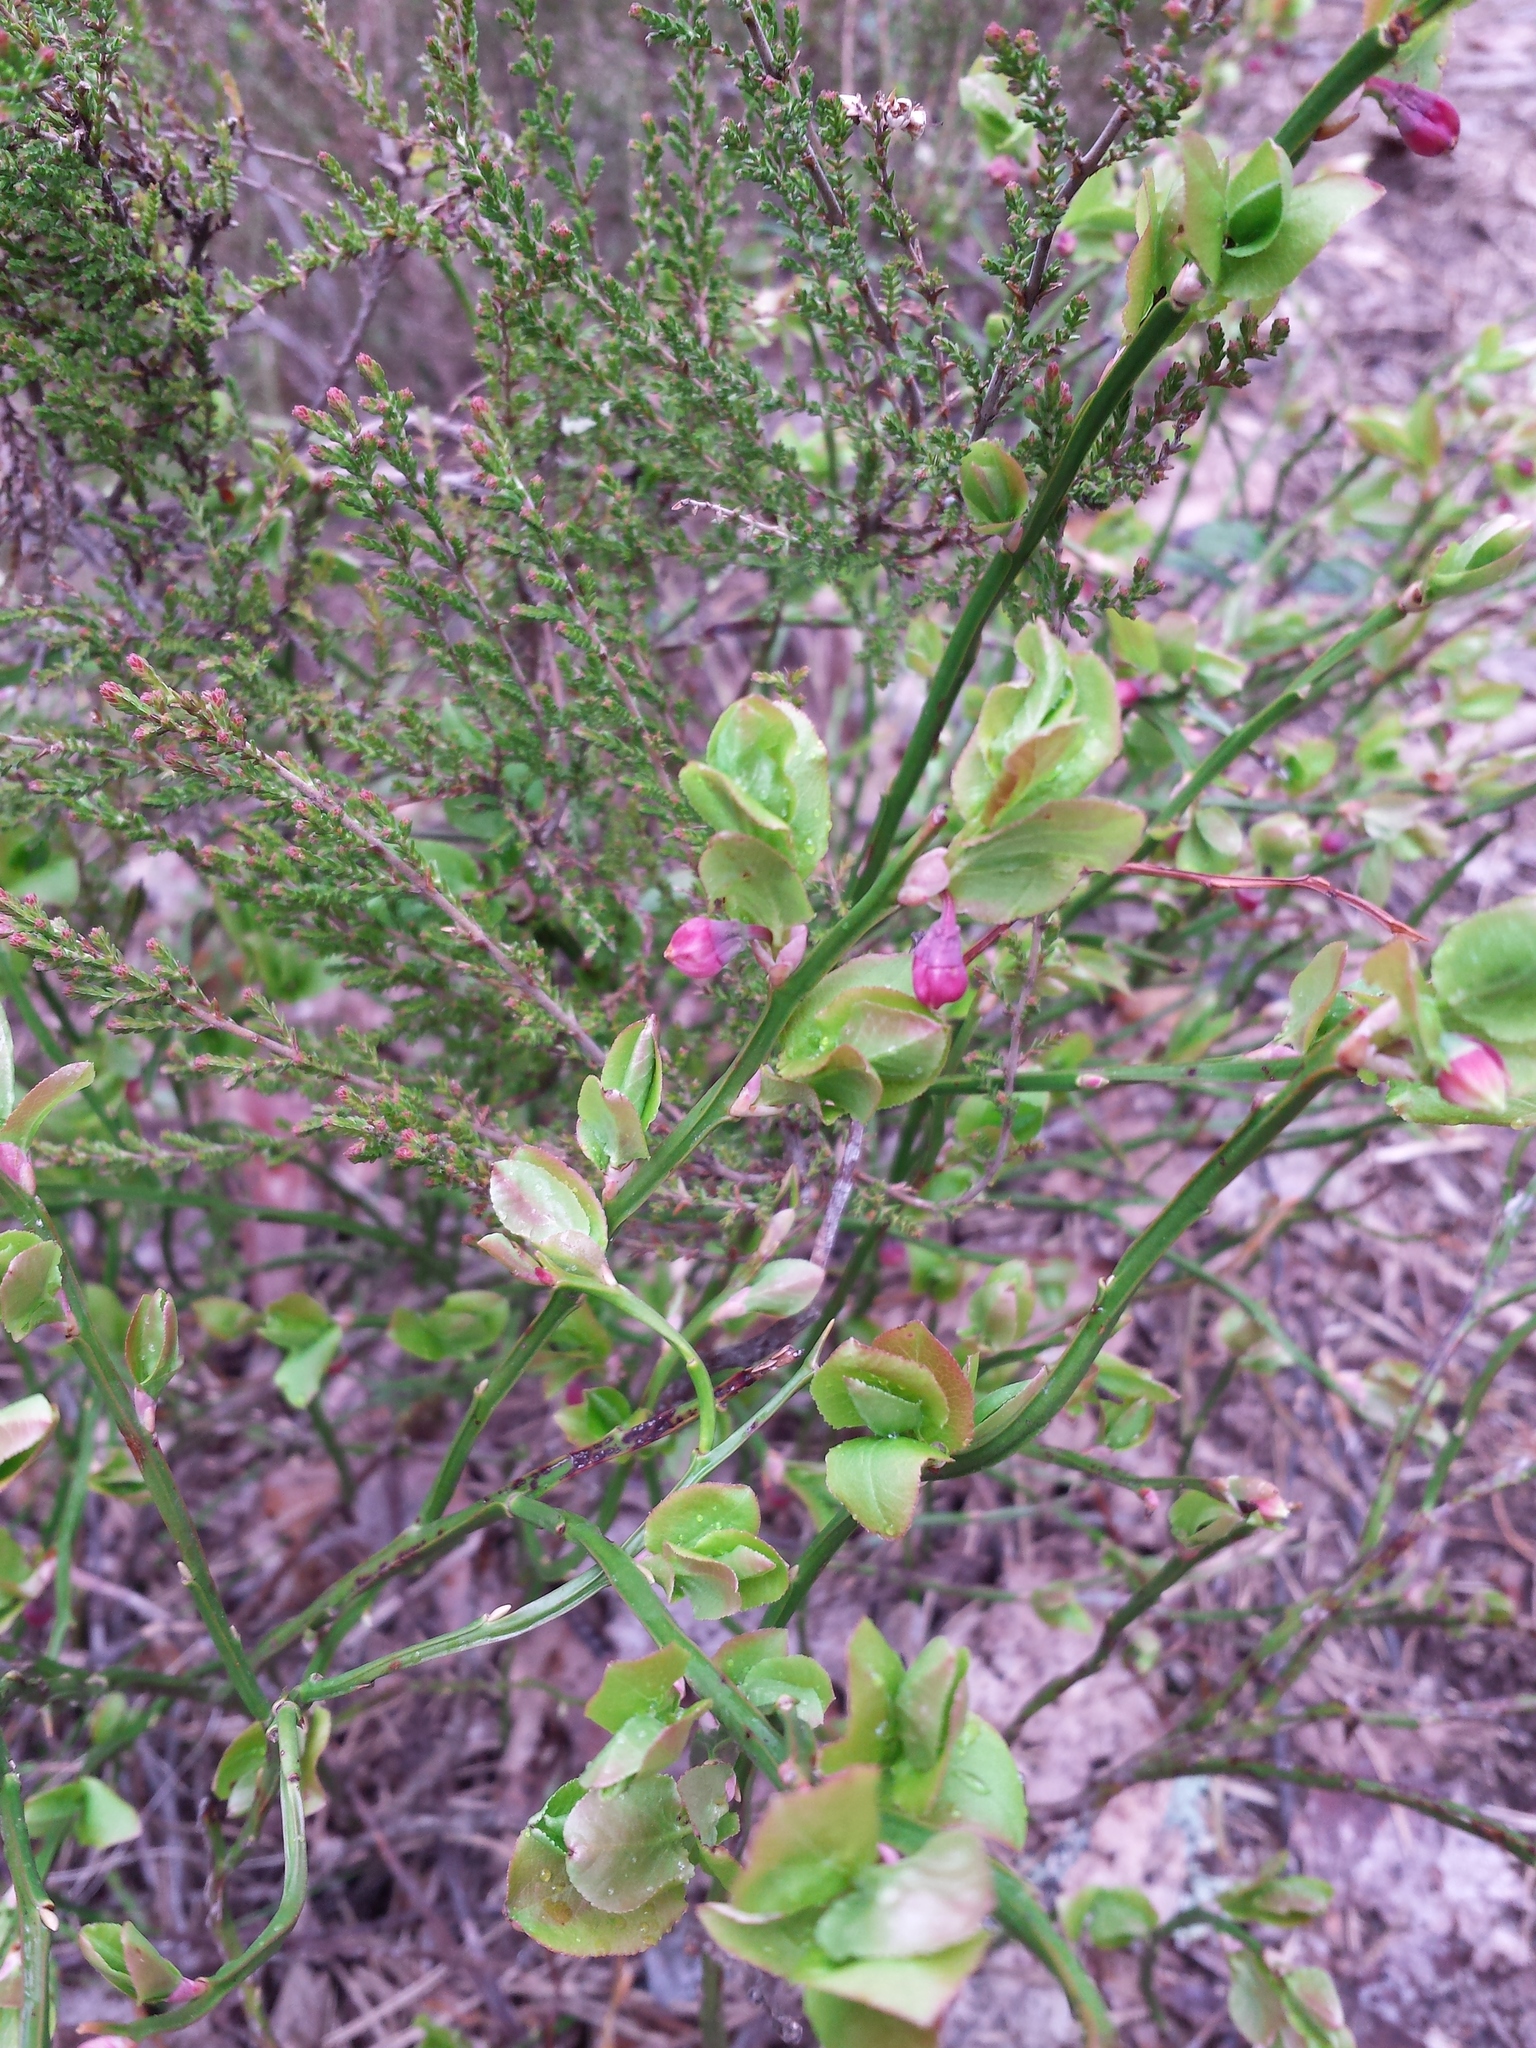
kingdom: Plantae
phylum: Tracheophyta
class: Magnoliopsida
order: Ericales
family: Ericaceae
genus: Vaccinium
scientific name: Vaccinium myrtillus
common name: Bilberry
